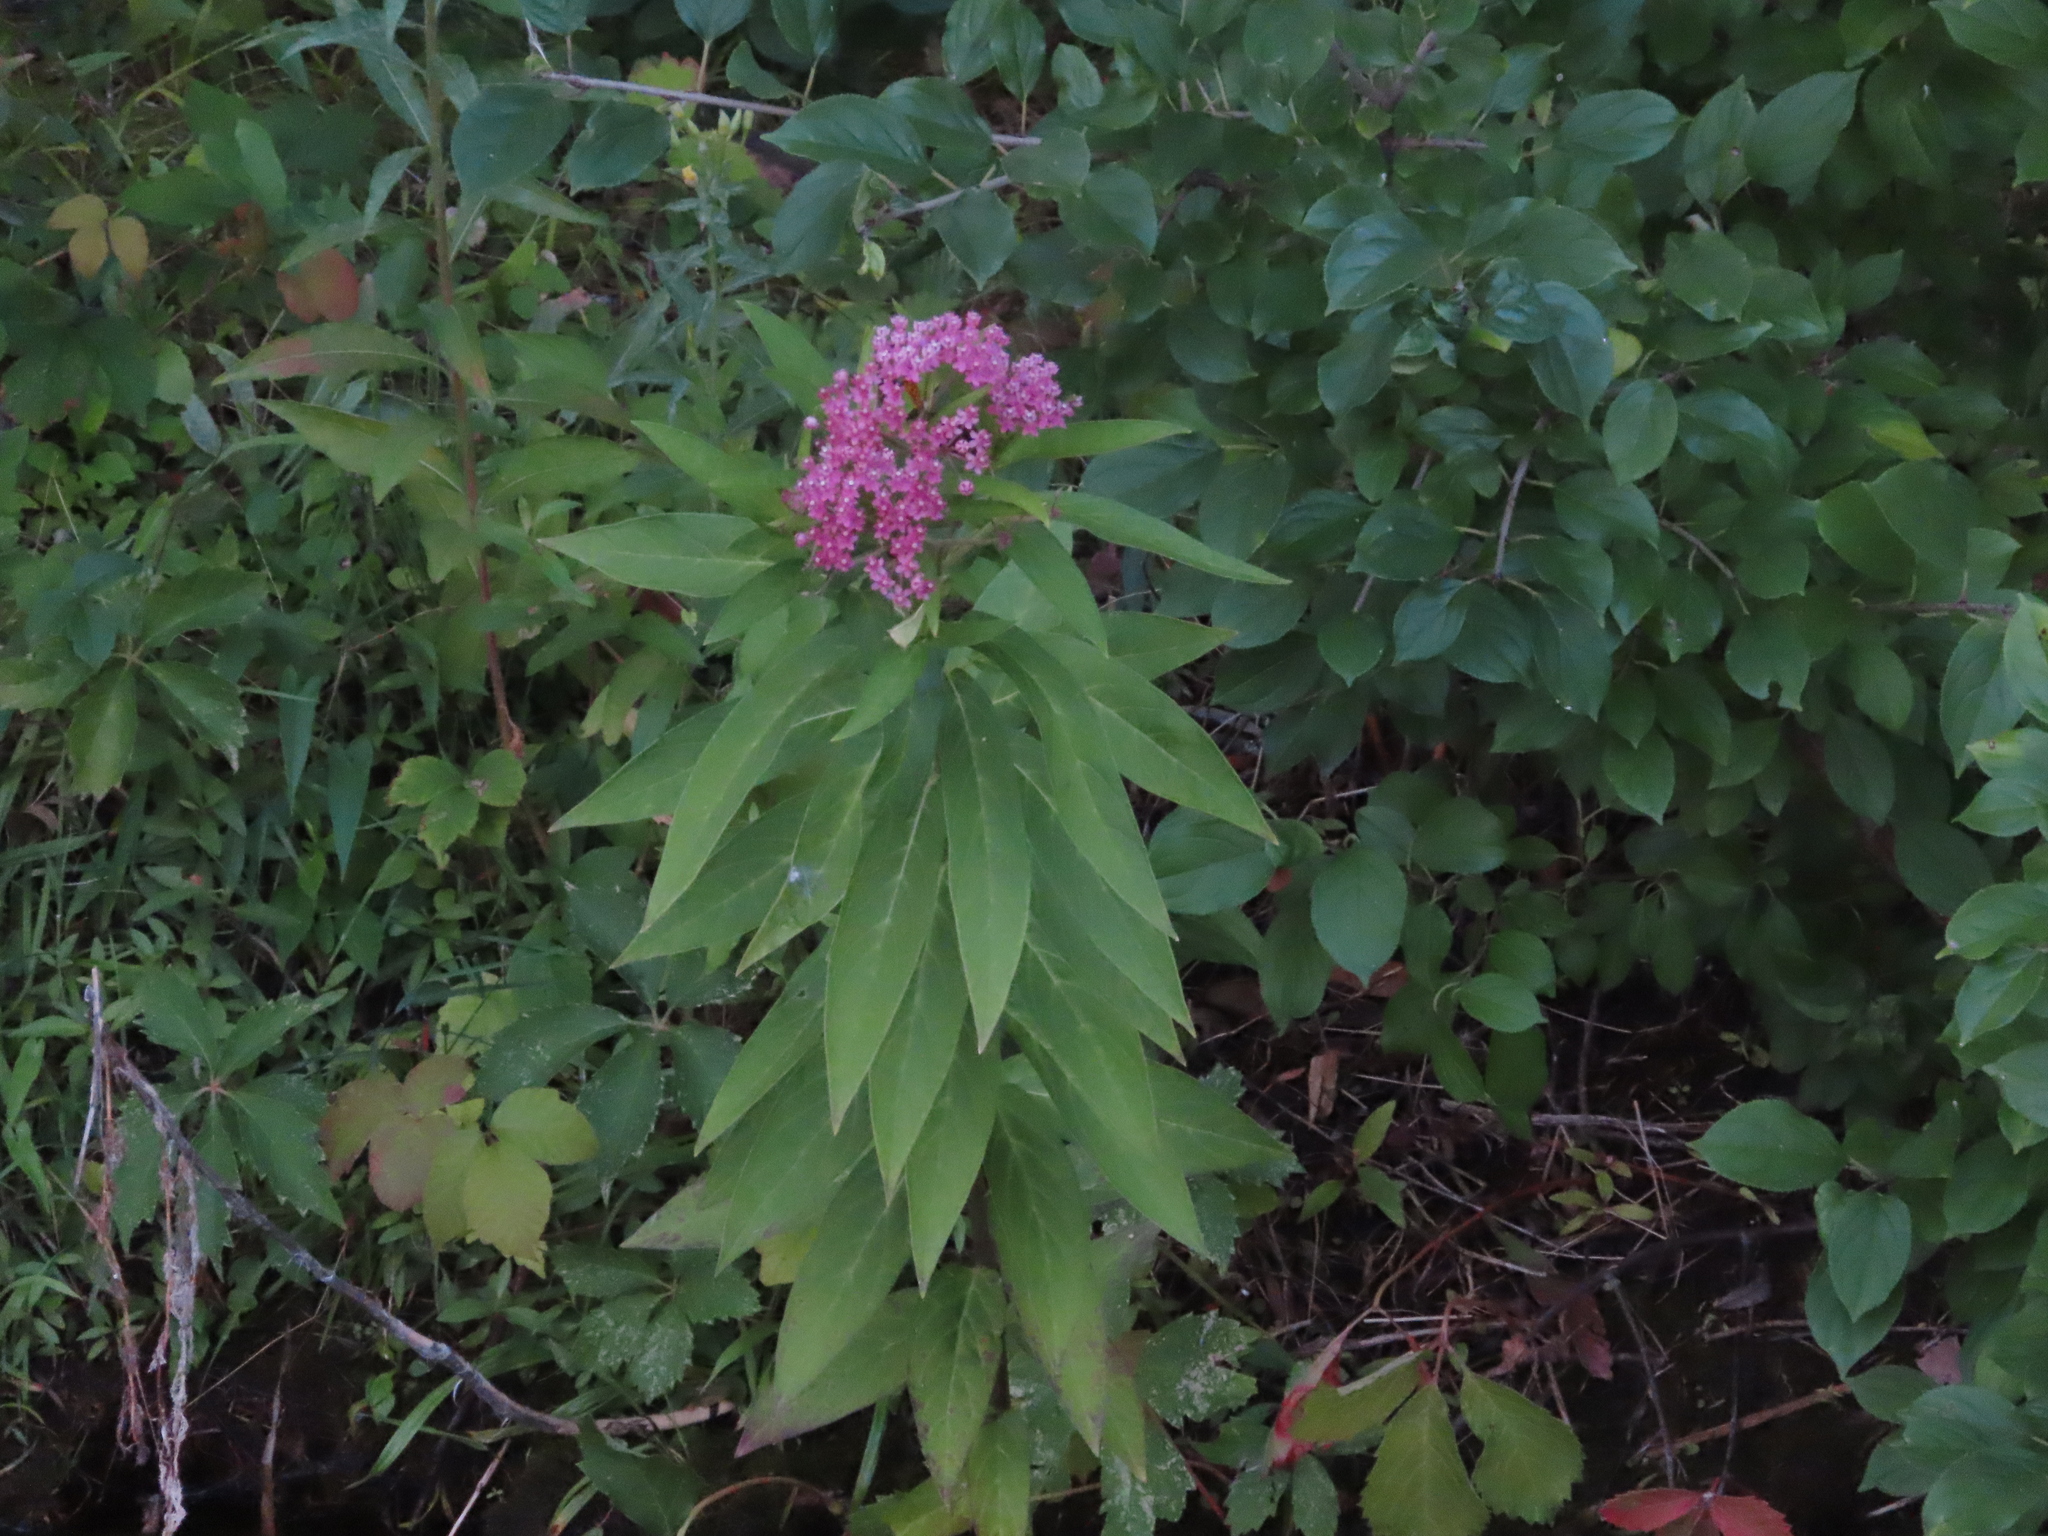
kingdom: Plantae
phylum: Tracheophyta
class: Magnoliopsida
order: Gentianales
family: Apocynaceae
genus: Asclepias
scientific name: Asclepias incarnata
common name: Swamp milkweed
